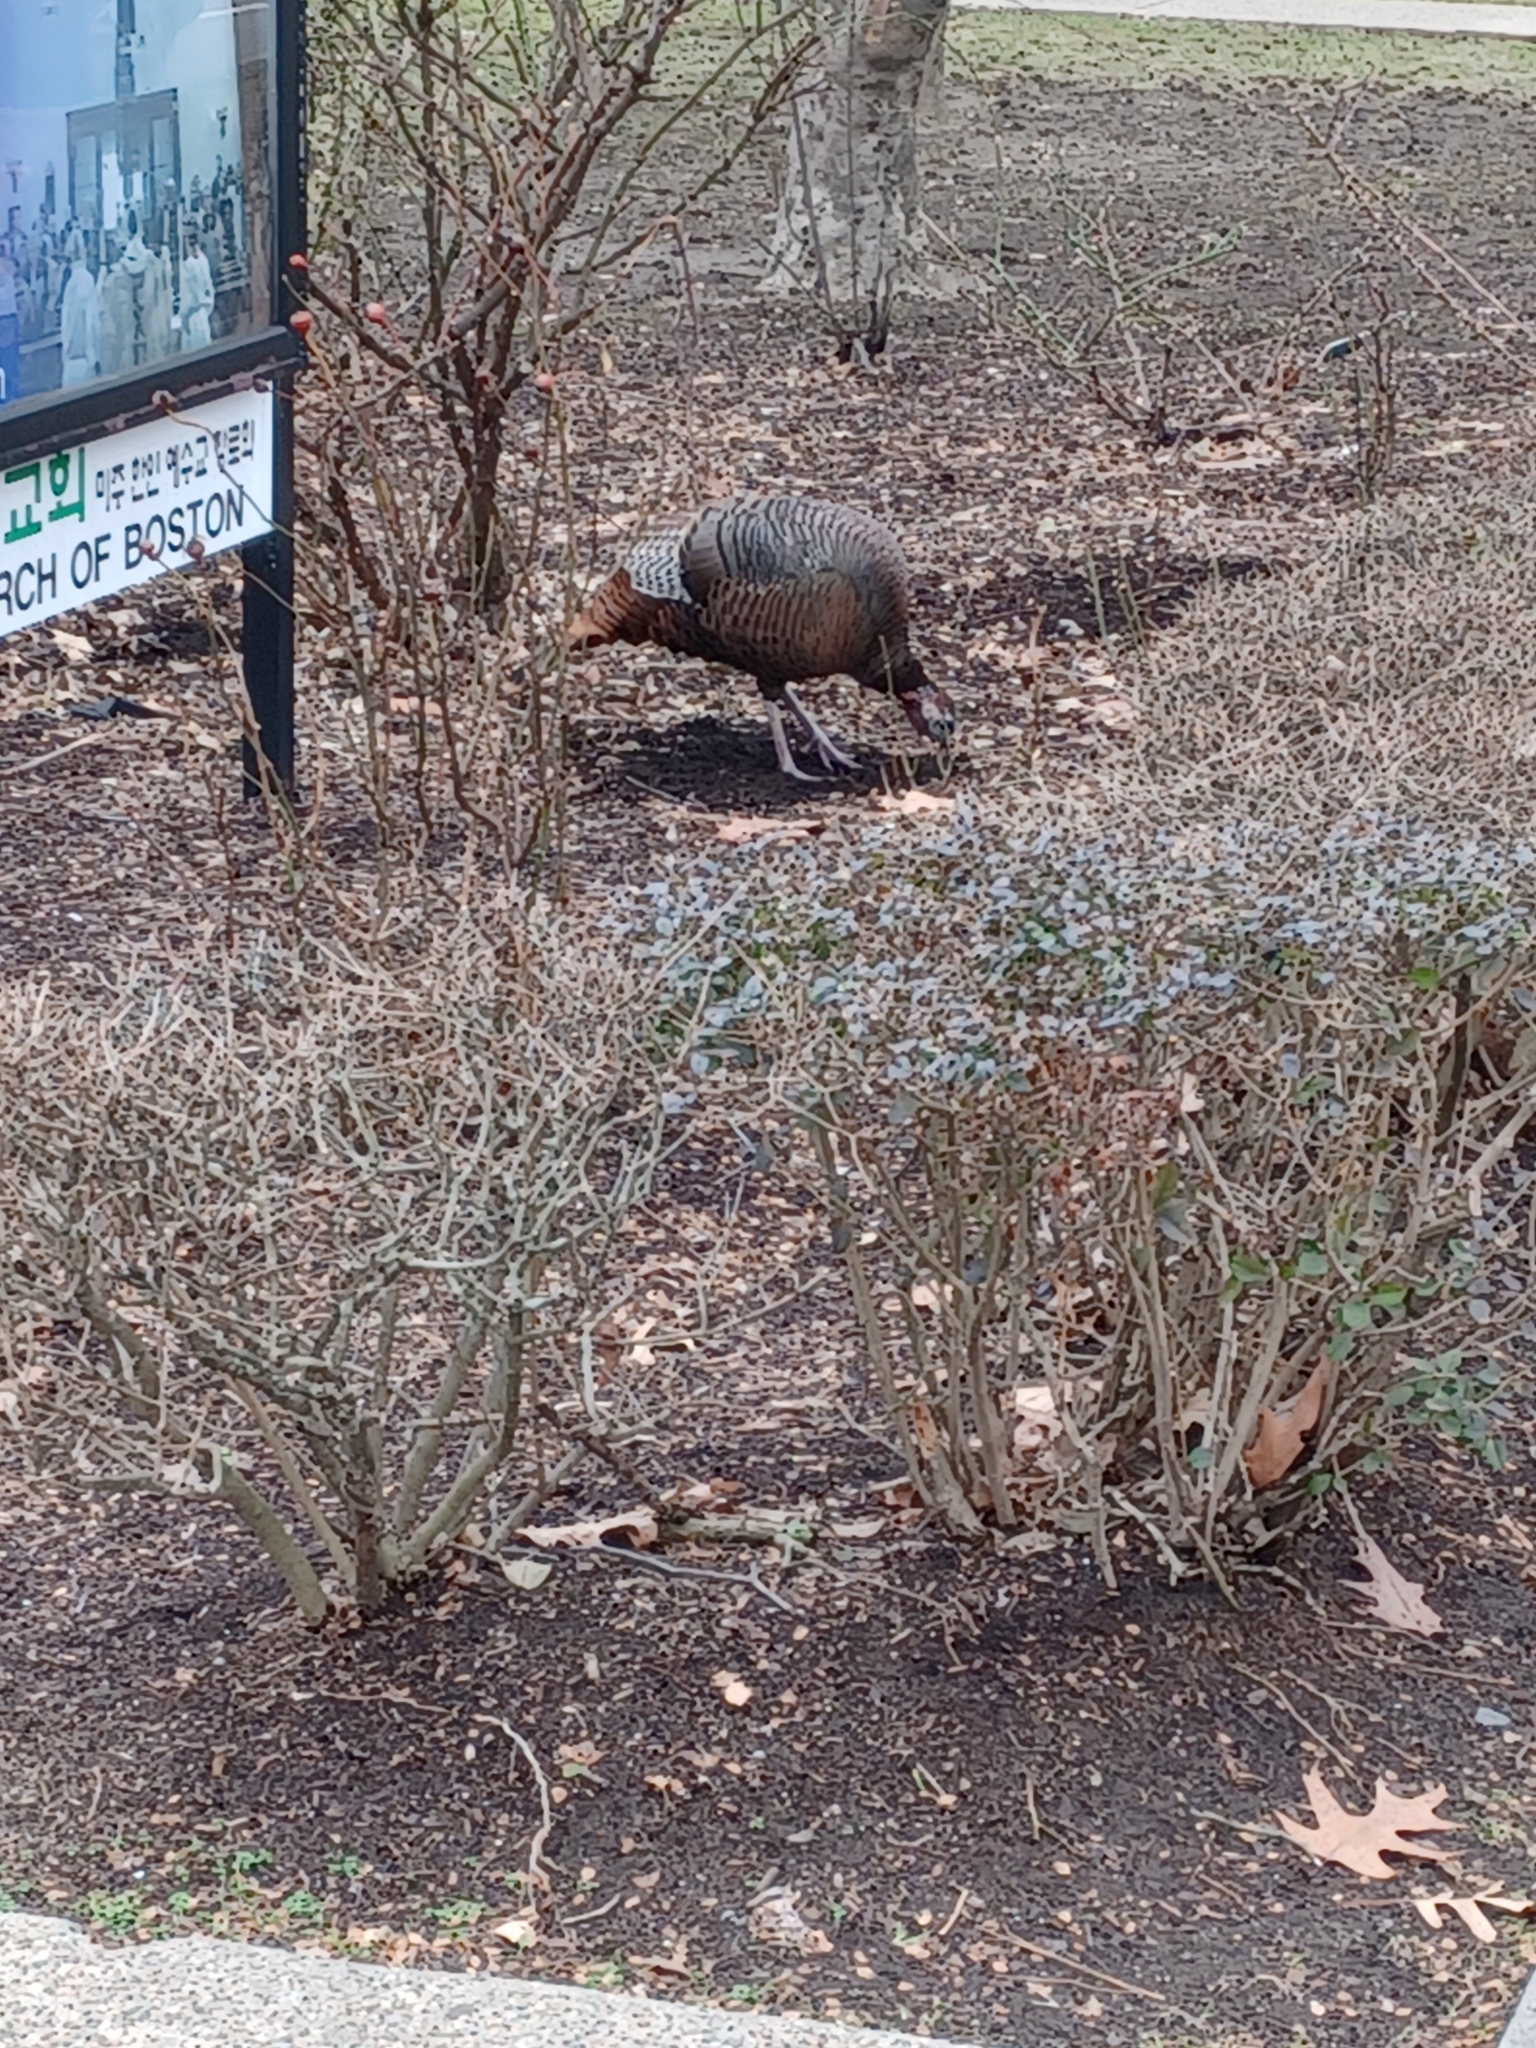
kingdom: Animalia
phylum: Chordata
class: Aves
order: Galliformes
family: Phasianidae
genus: Meleagris
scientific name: Meleagris gallopavo
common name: Wild turkey
